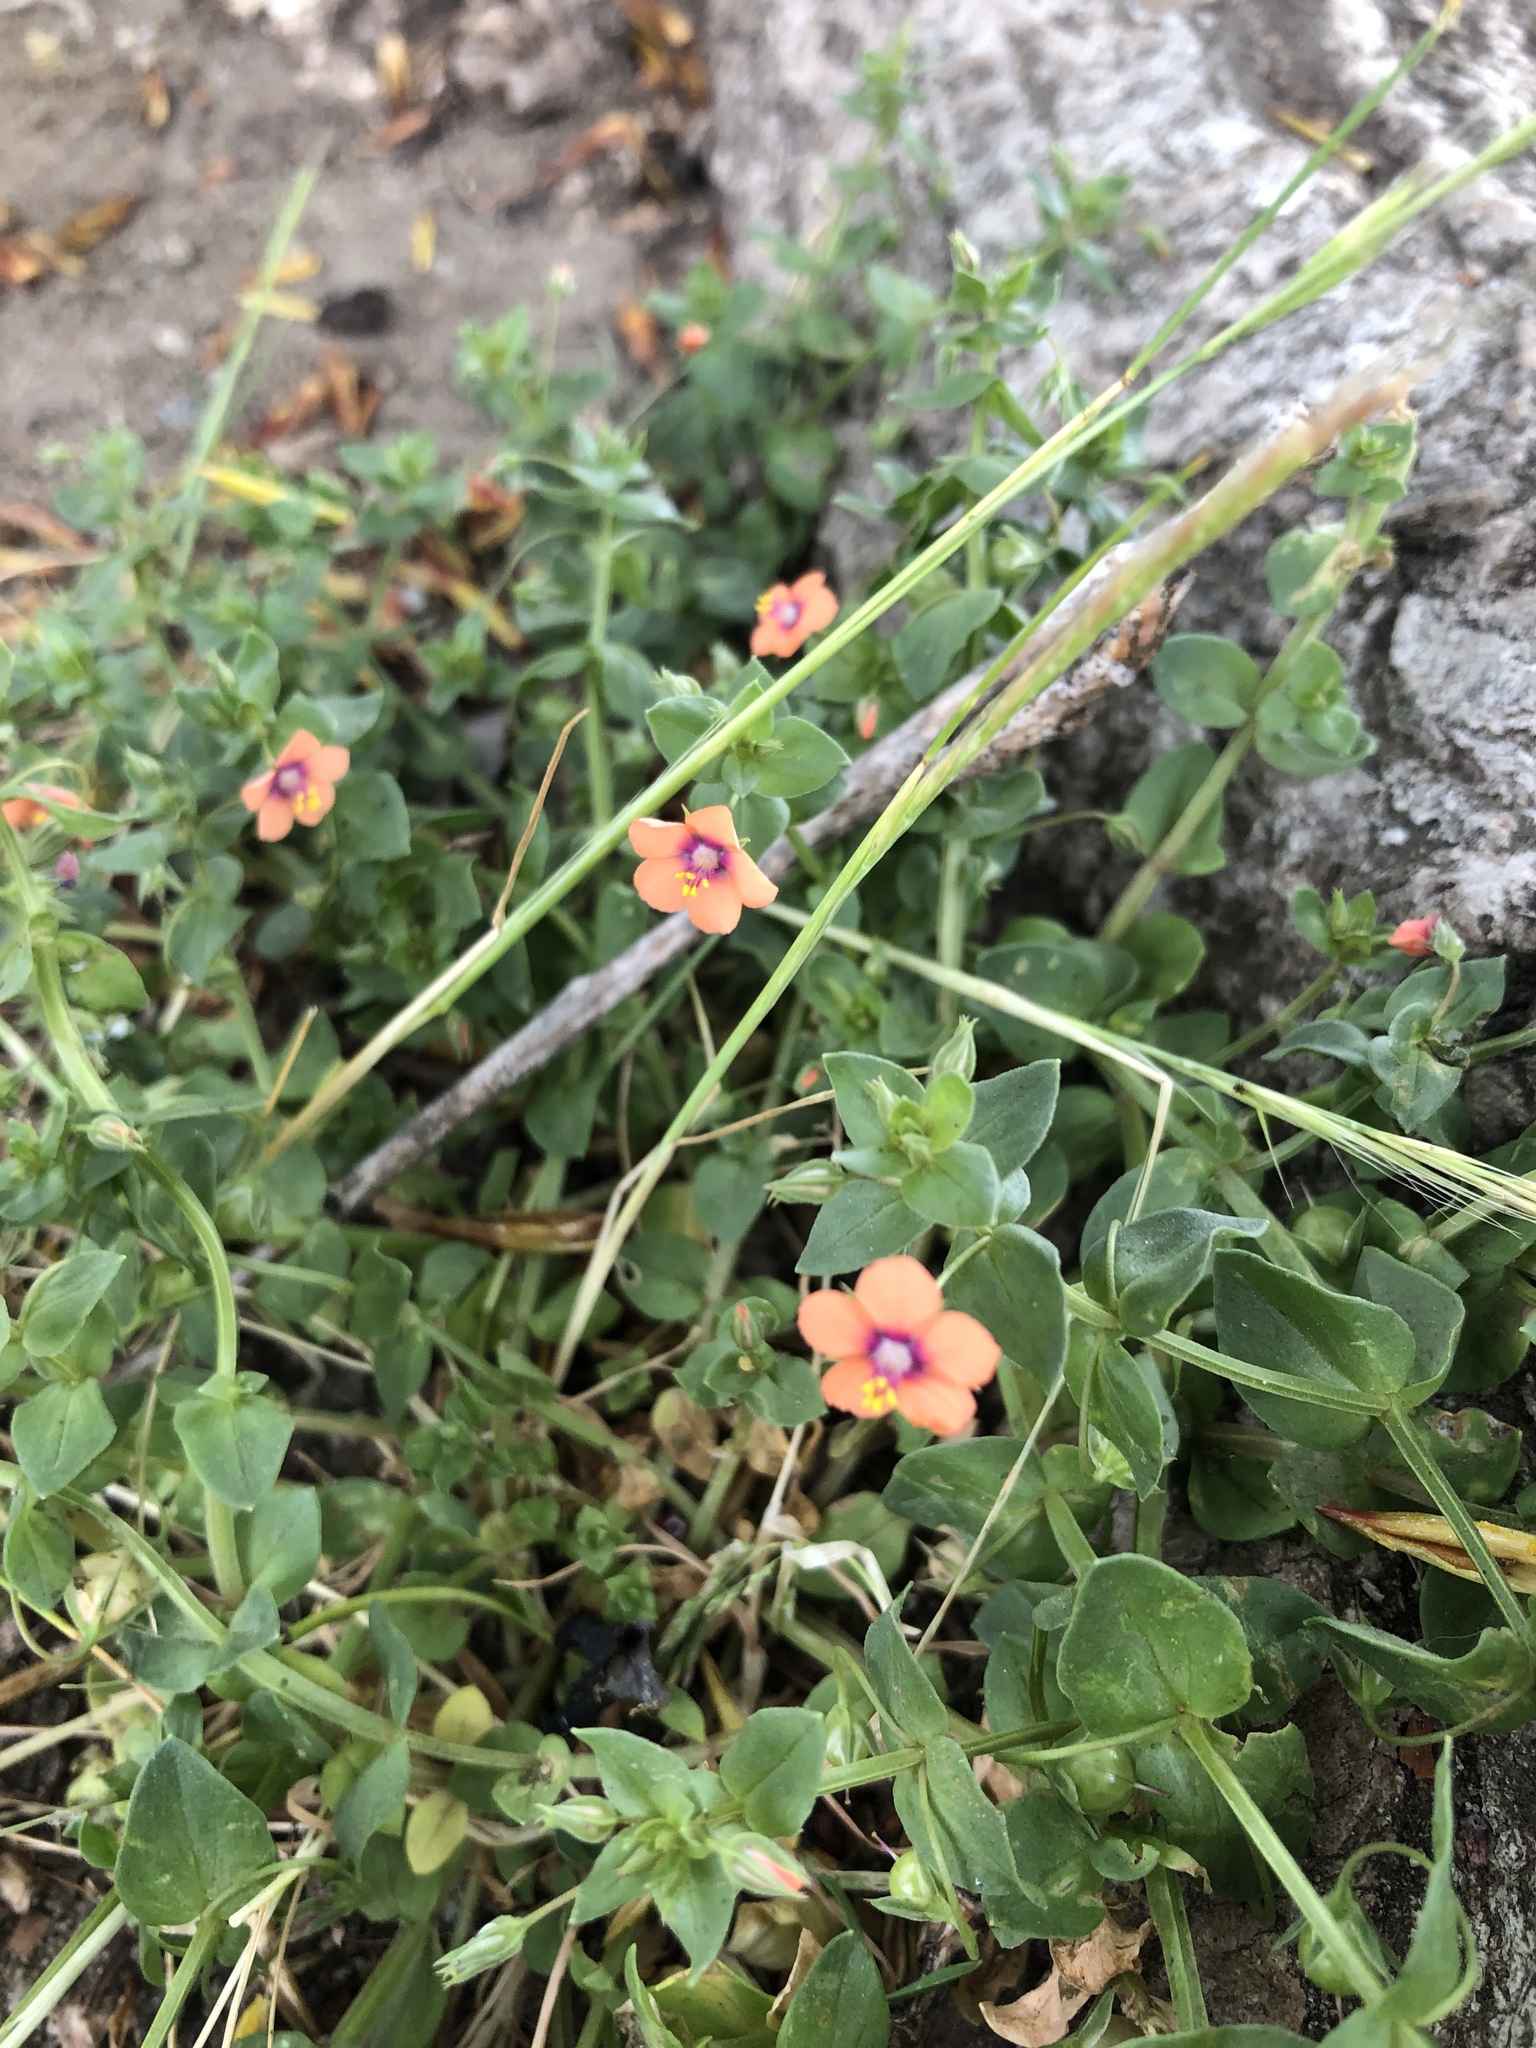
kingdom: Plantae
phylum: Tracheophyta
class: Magnoliopsida
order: Ericales
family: Primulaceae
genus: Lysimachia
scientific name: Lysimachia arvensis
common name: Scarlet pimpernel
